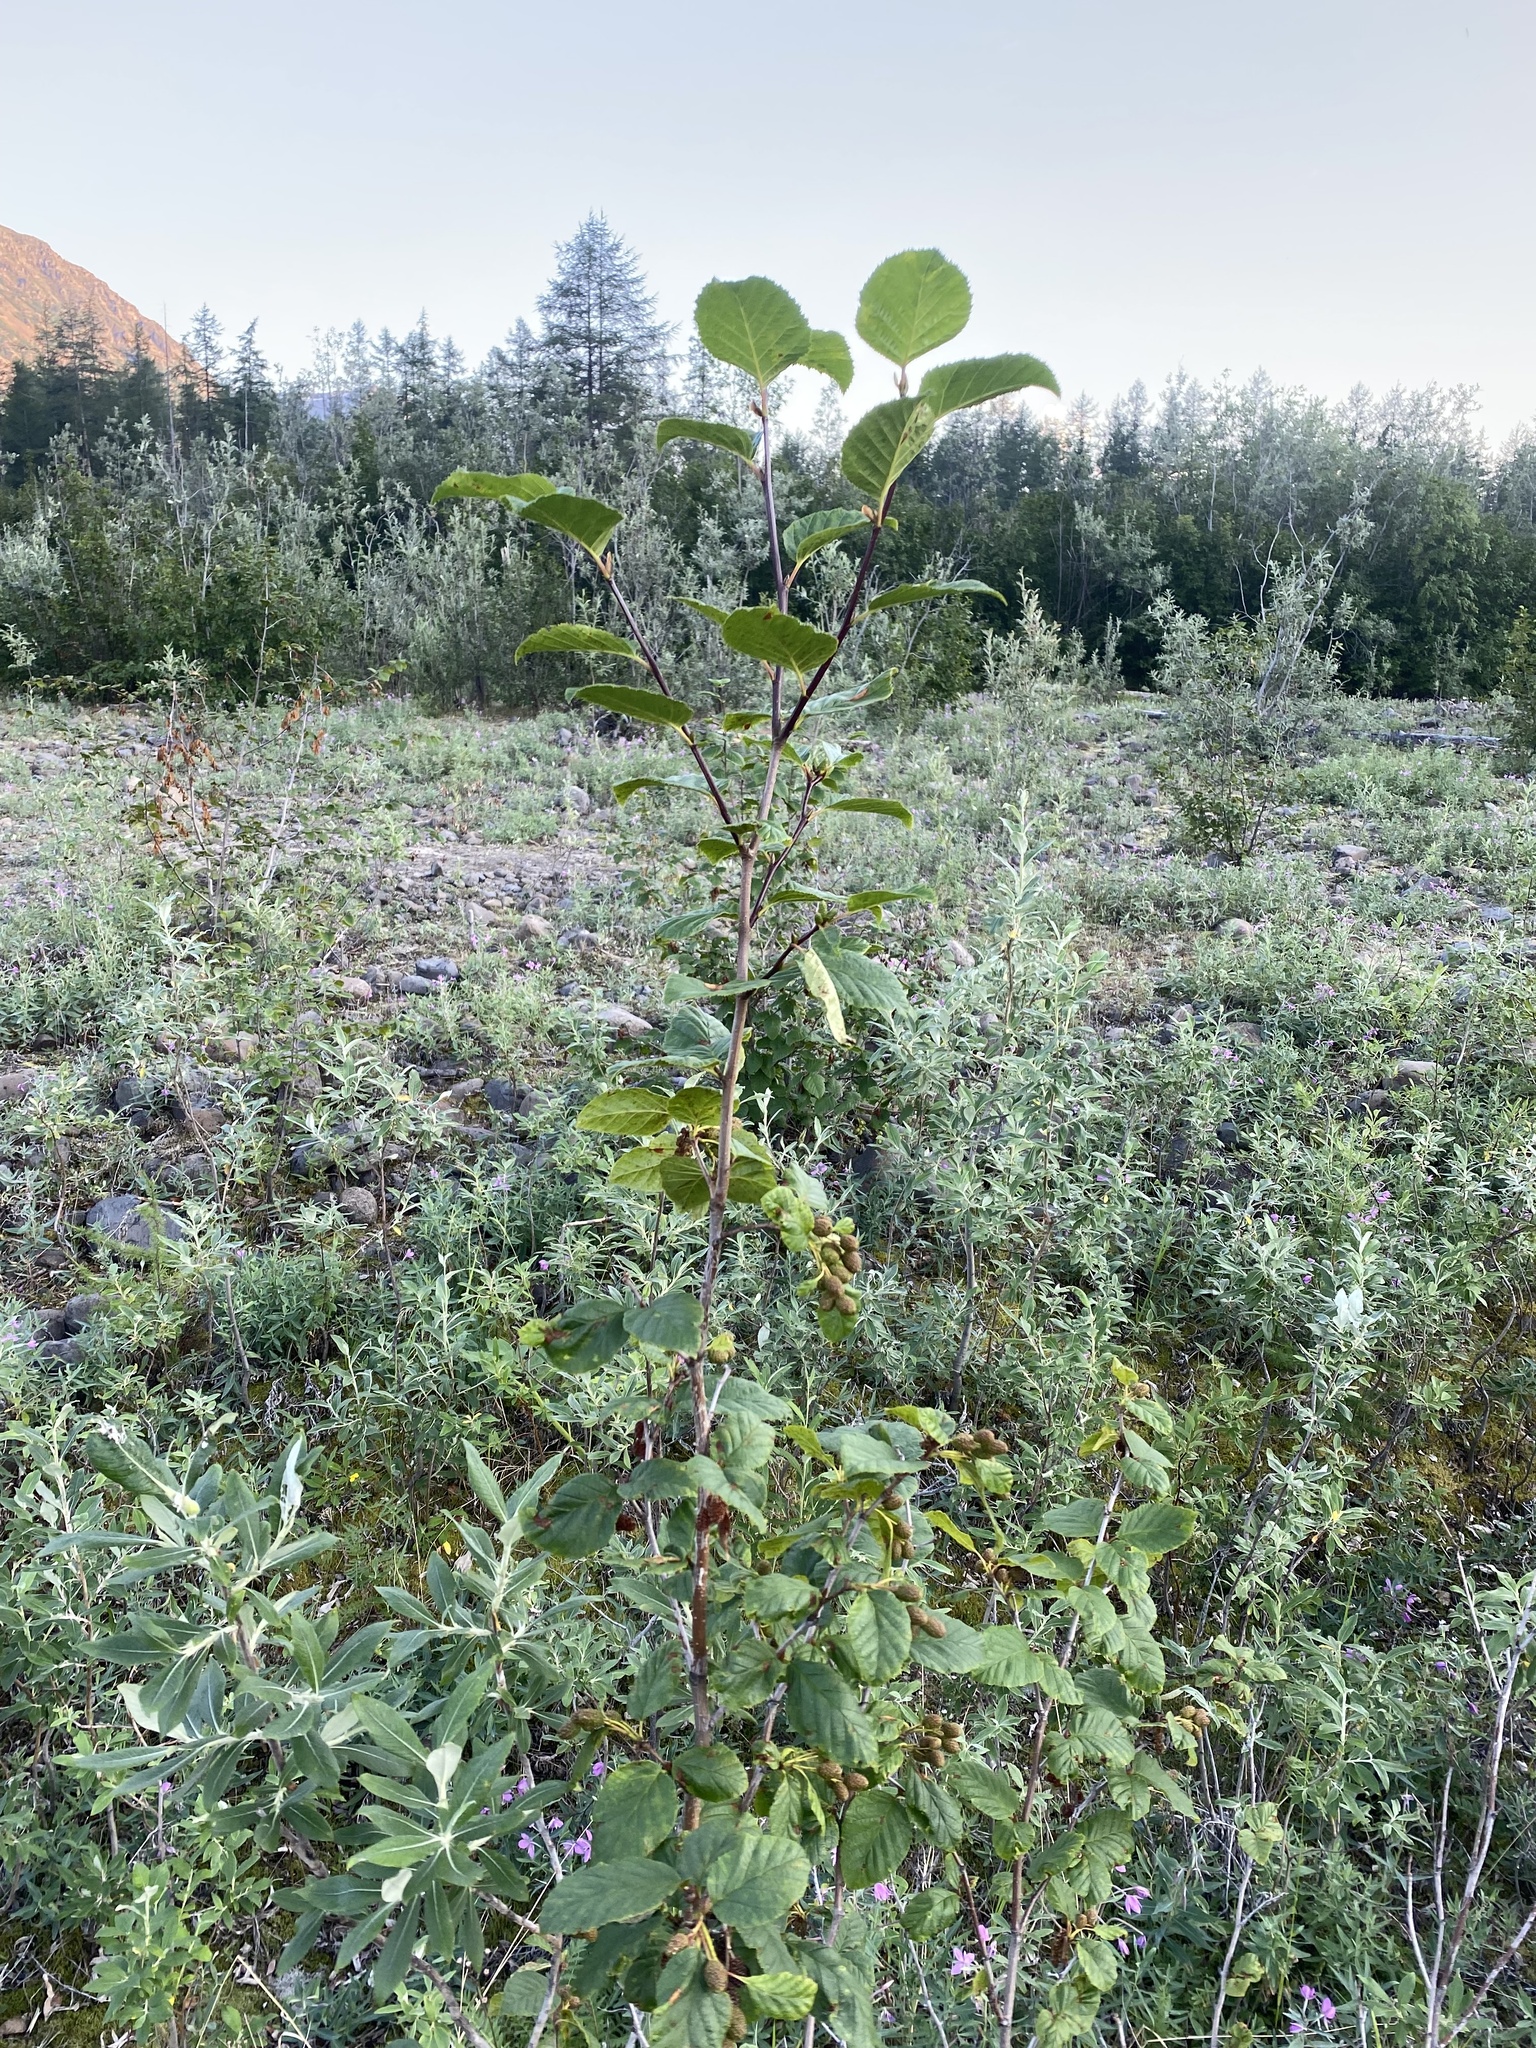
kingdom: Plantae
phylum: Tracheophyta
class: Magnoliopsida
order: Fagales
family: Betulaceae
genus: Alnus
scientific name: Alnus alnobetula
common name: Green alder
